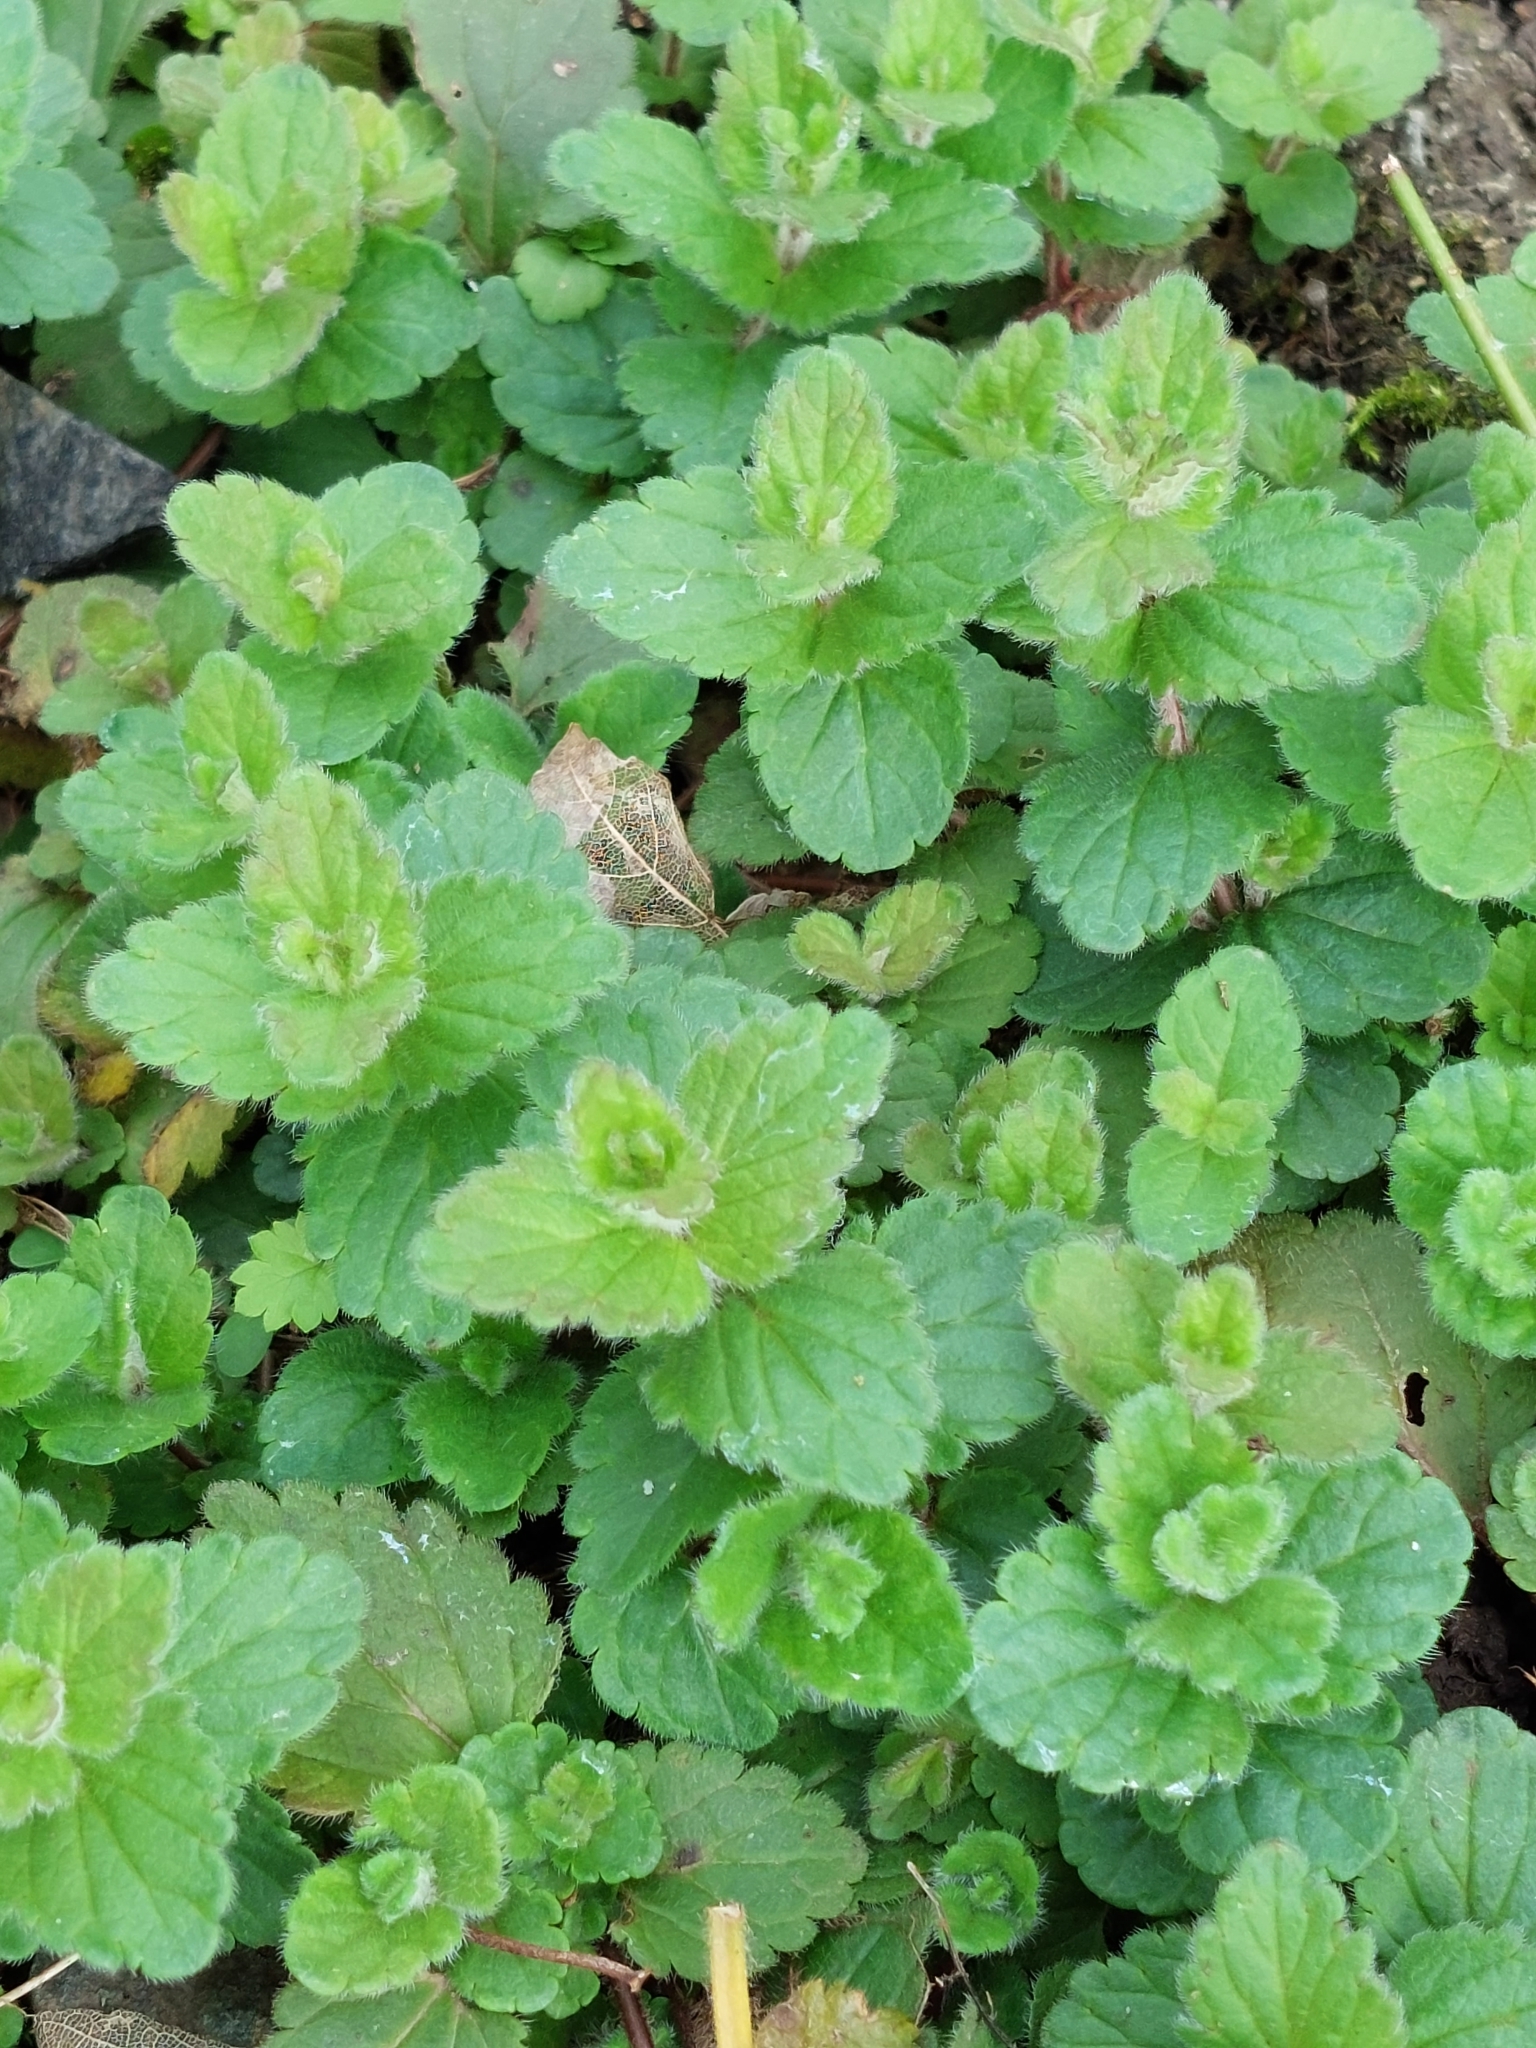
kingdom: Plantae
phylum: Tracheophyta
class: Magnoliopsida
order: Lamiales
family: Lamiaceae
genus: Glechoma
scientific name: Glechoma hederacea
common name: Ground ivy
